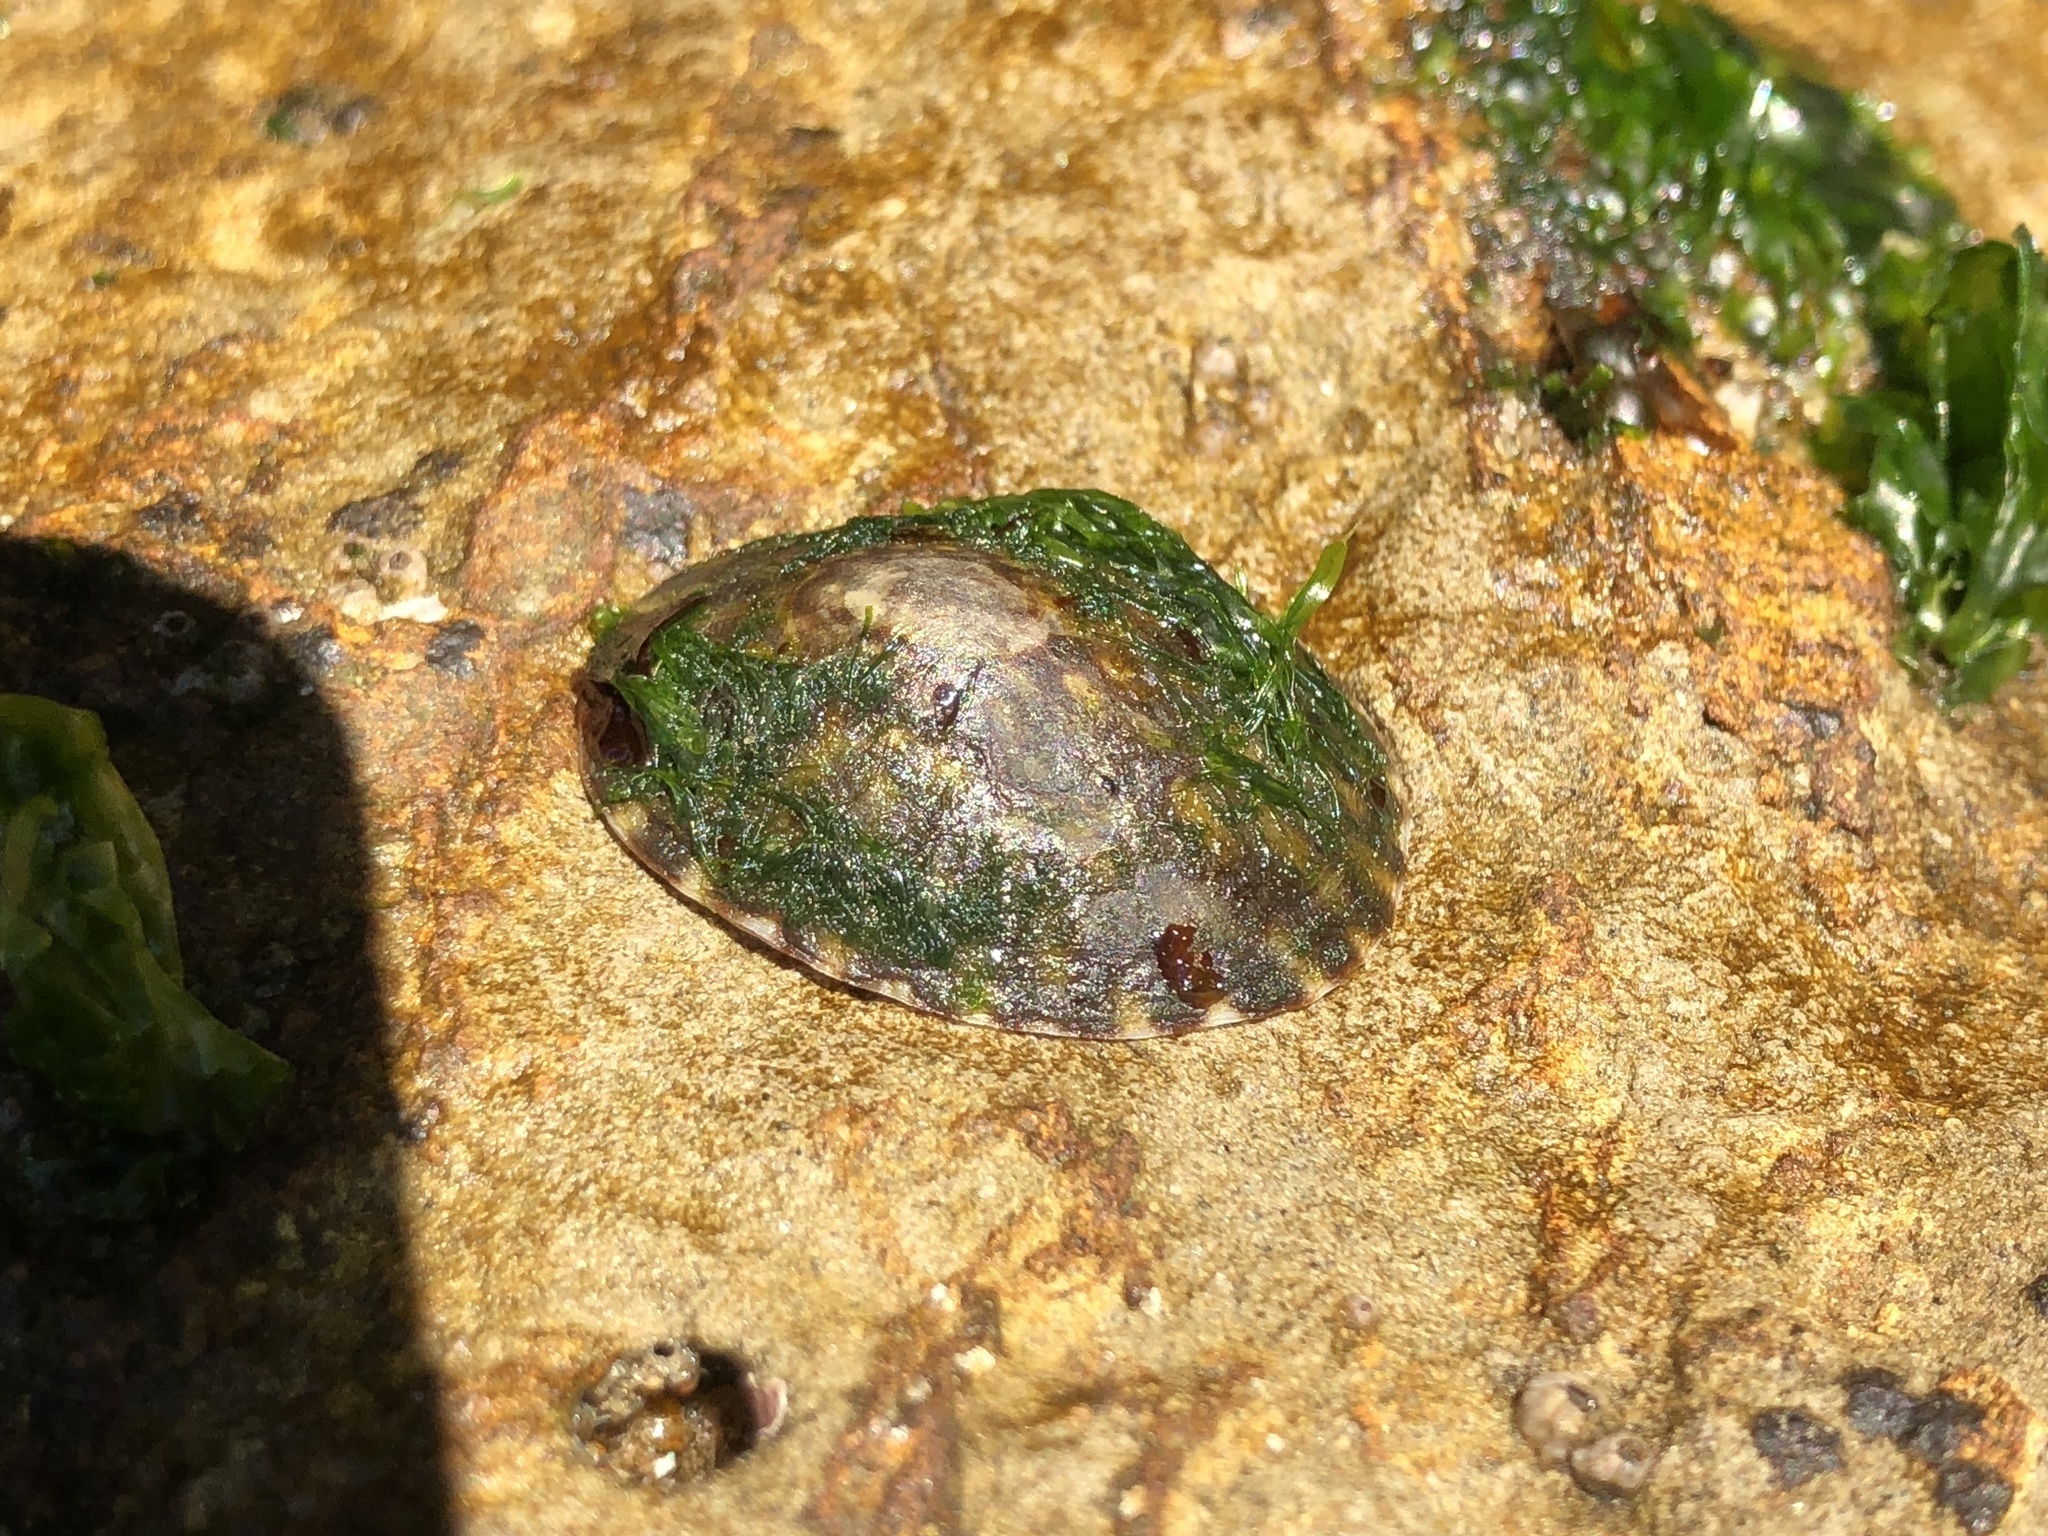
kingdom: Animalia
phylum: Mollusca
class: Gastropoda
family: Lottiidae
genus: Lottia
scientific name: Lottia gigantea
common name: Owl limpet
